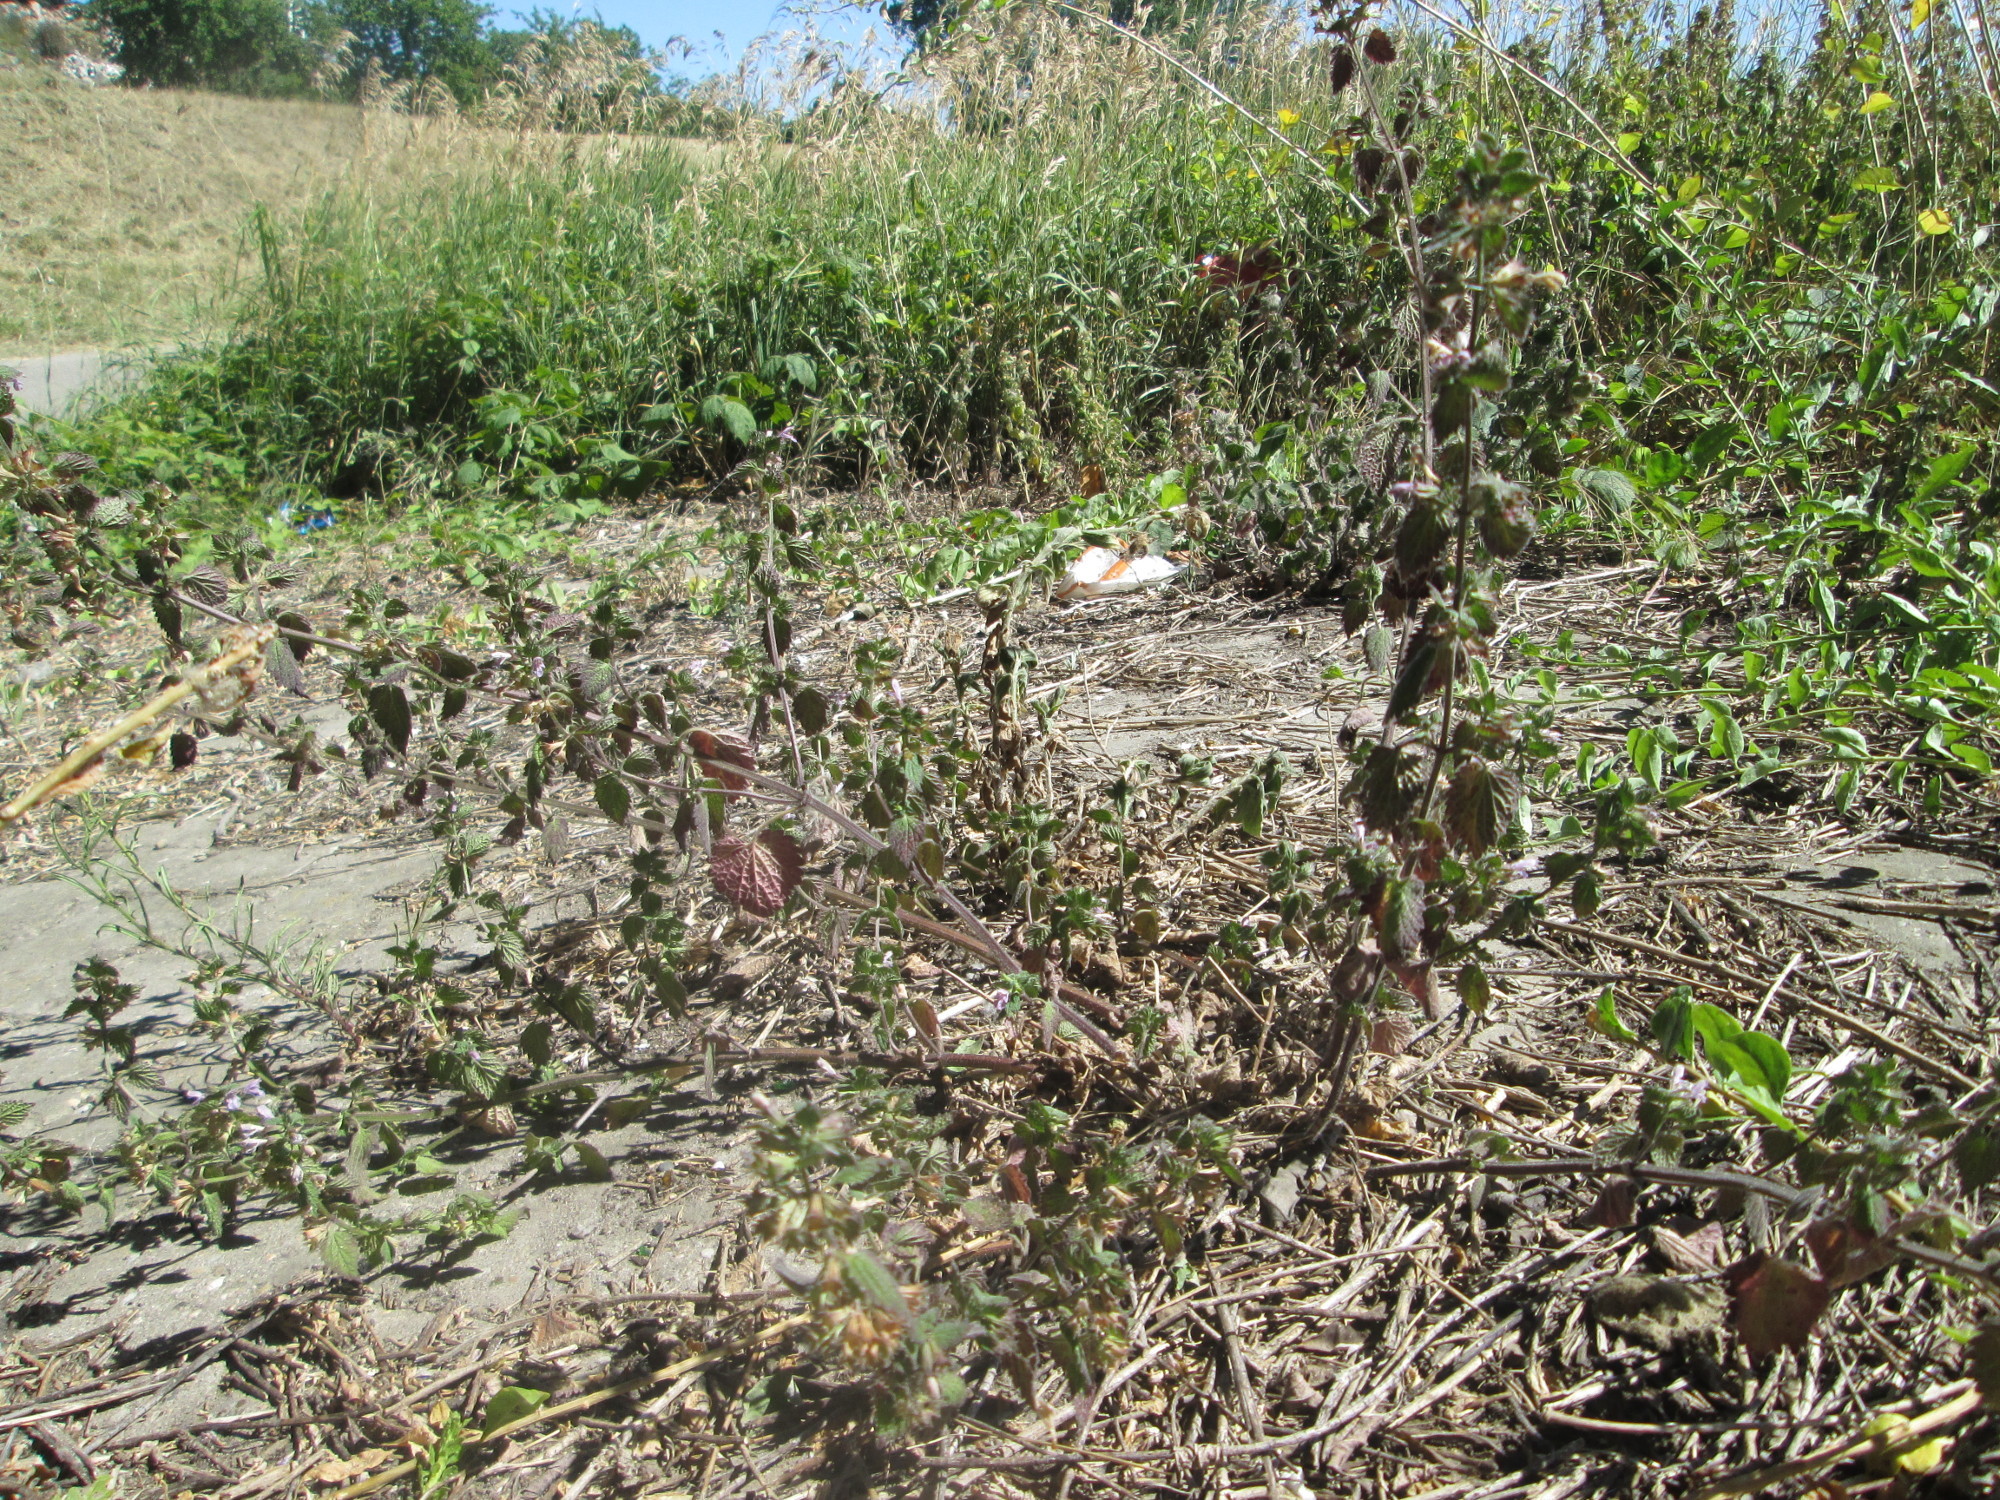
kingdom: Plantae
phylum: Tracheophyta
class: Magnoliopsida
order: Lamiales
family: Lamiaceae
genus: Ballota
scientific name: Ballota nigra
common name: Black horehound
